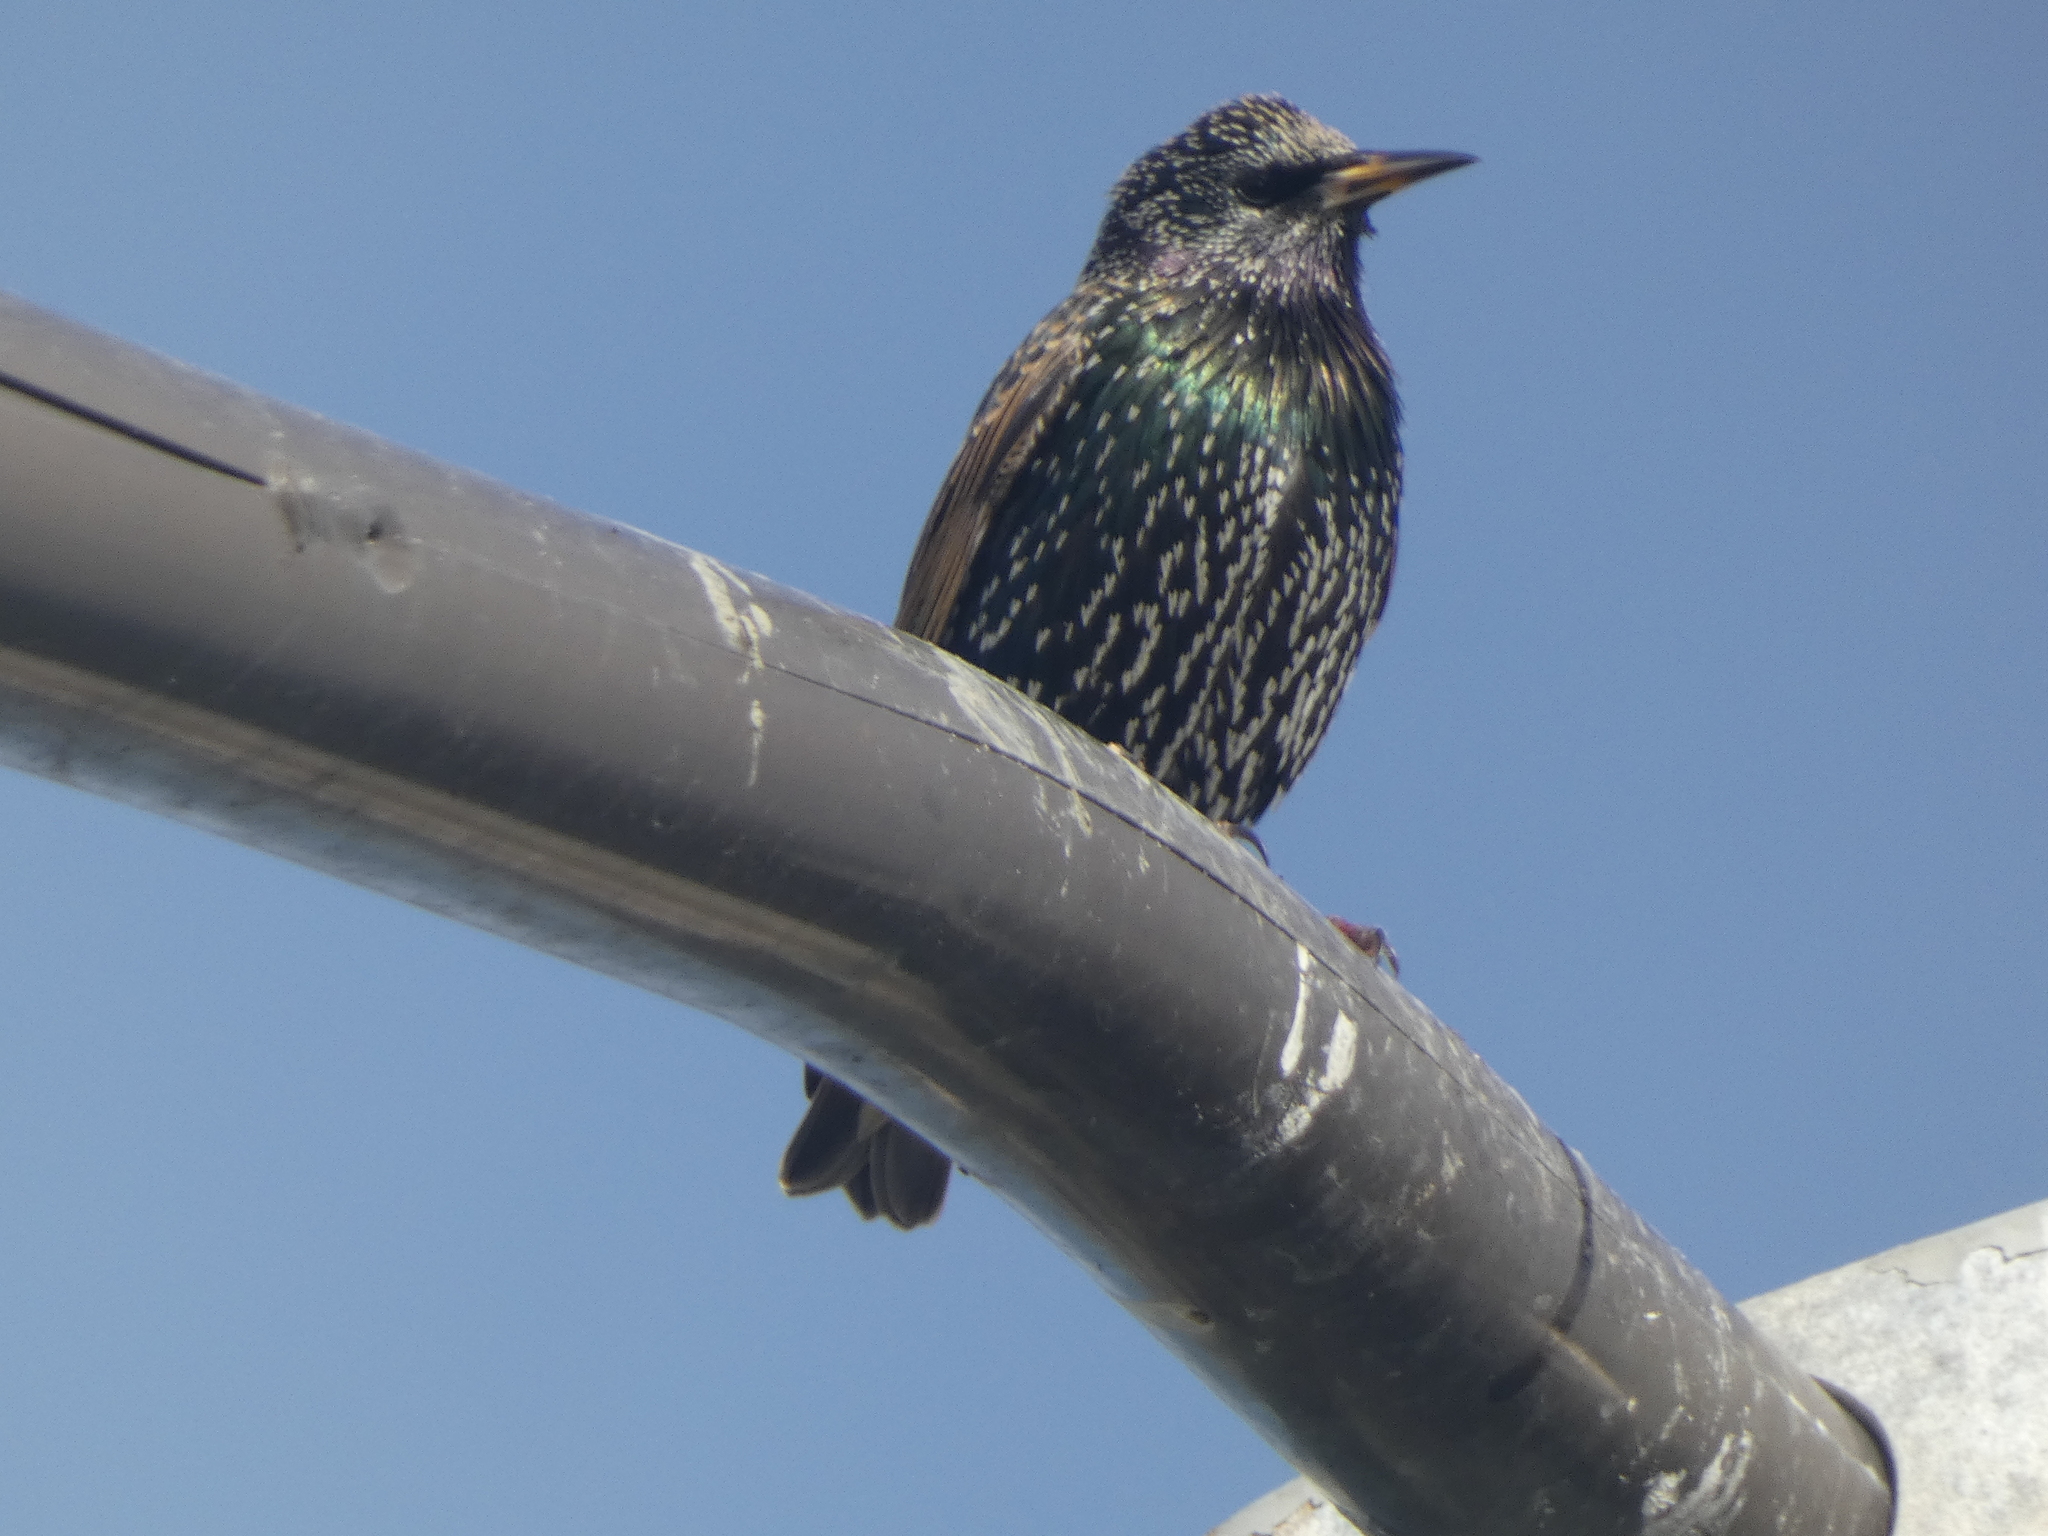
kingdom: Animalia
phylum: Chordata
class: Aves
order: Passeriformes
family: Sturnidae
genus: Sturnus
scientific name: Sturnus vulgaris
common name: Common starling
